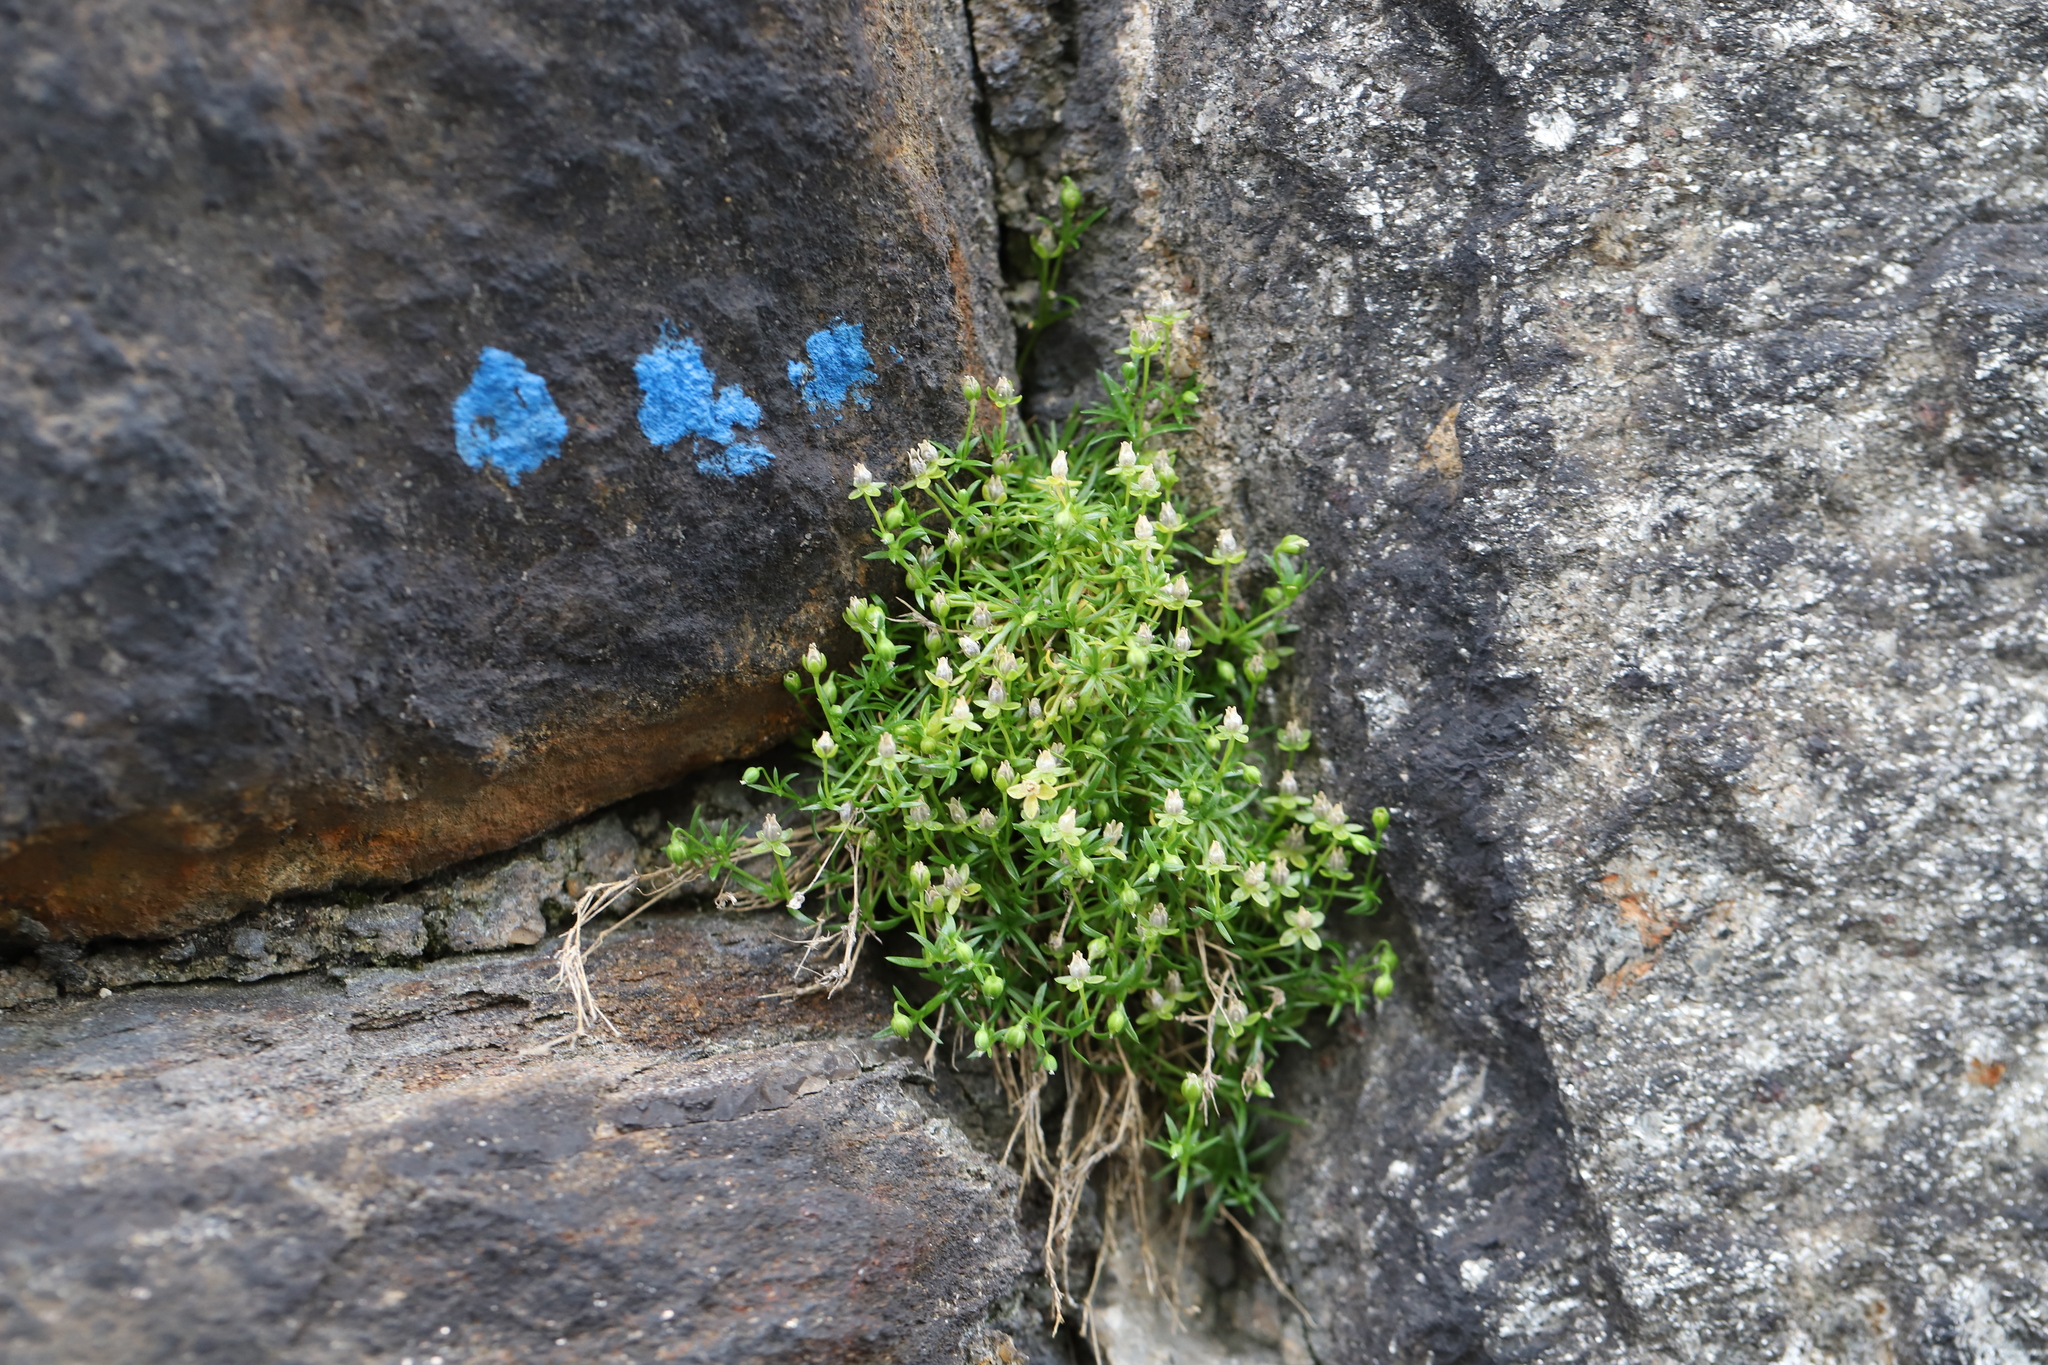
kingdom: Plantae
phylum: Tracheophyta
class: Magnoliopsida
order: Caryophyllales
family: Caryophyllaceae
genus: Sagina
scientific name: Sagina procumbens
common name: Procumbent pearlwort
